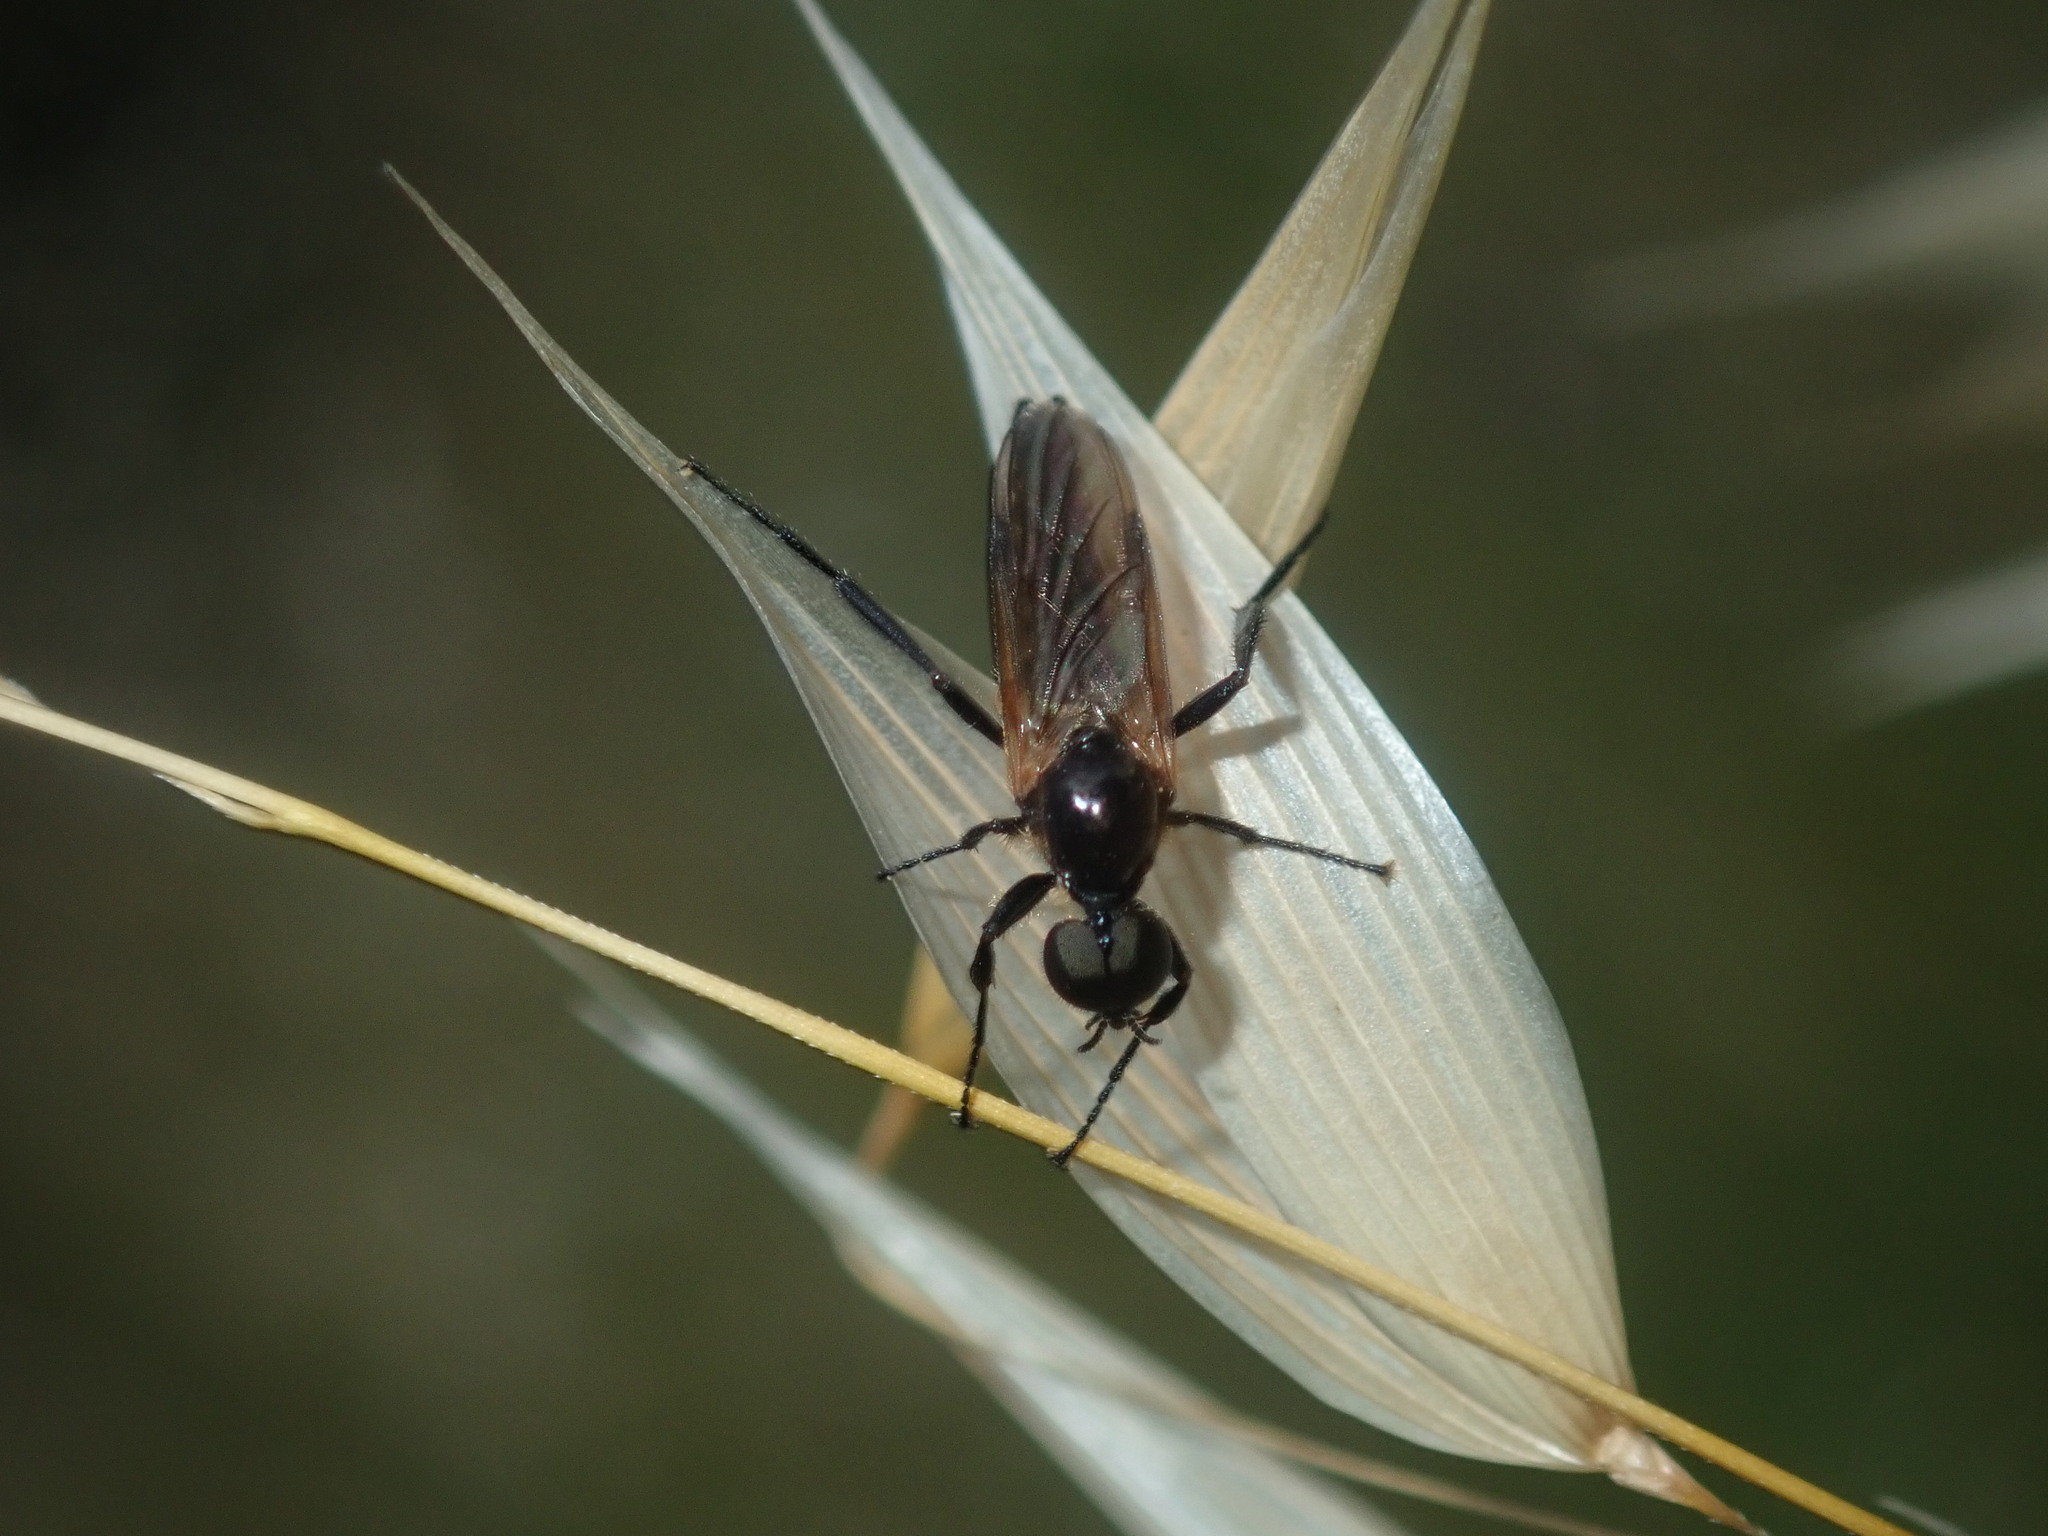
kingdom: Animalia
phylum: Arthropoda
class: Insecta
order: Diptera
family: Bibionidae
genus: Bibio
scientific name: Bibio imitator
